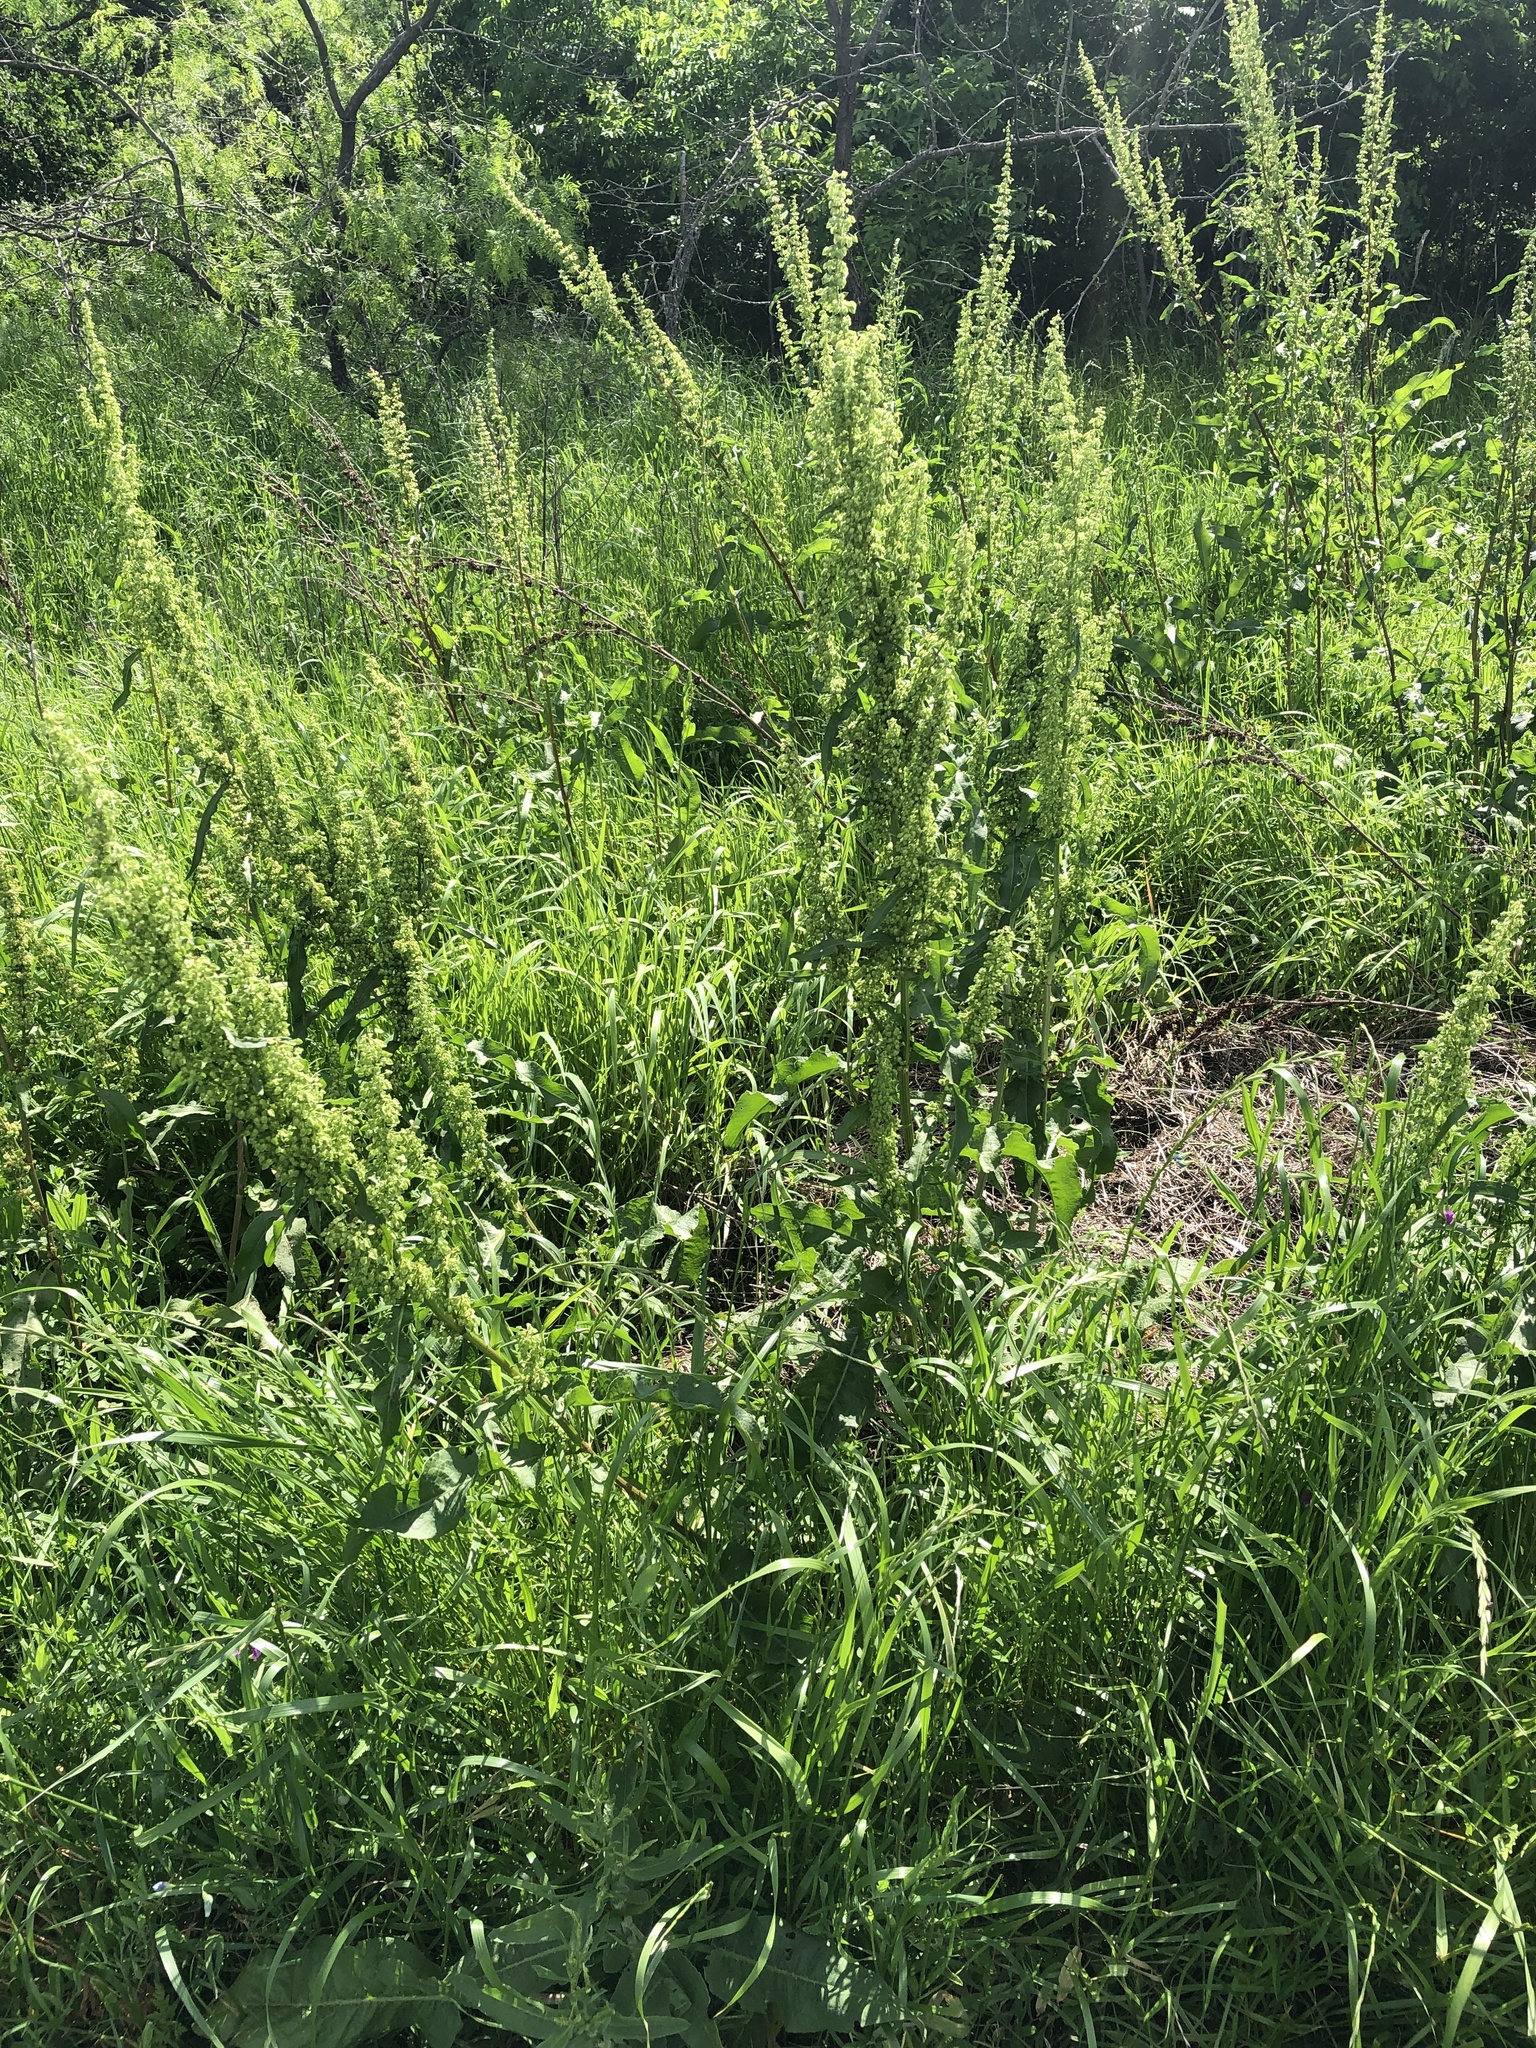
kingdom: Plantae
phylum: Tracheophyta
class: Magnoliopsida
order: Caryophyllales
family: Polygonaceae
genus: Rumex
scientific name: Rumex crispus
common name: Curled dock
